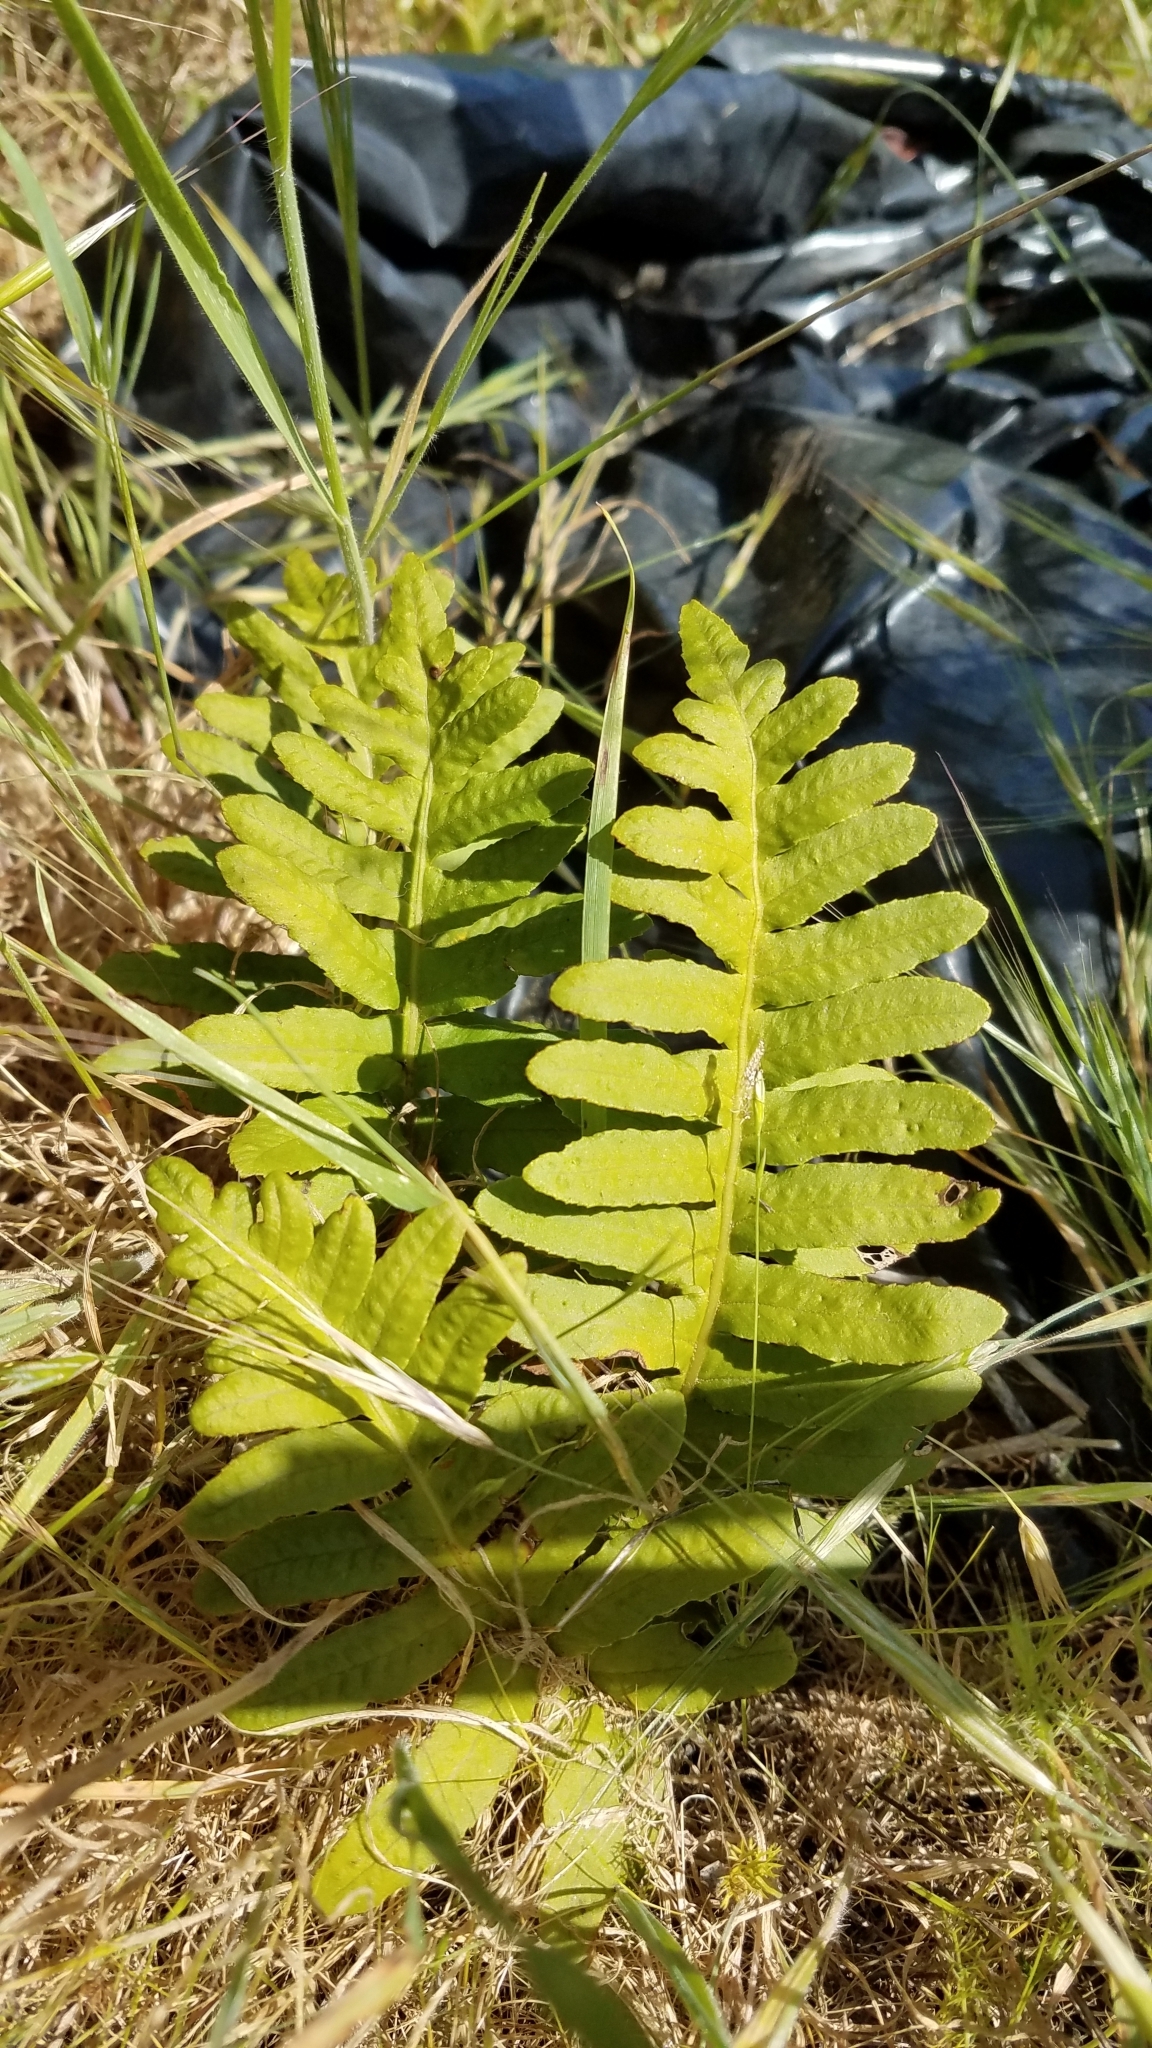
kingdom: Plantae
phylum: Tracheophyta
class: Polypodiopsida
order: Polypodiales
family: Polypodiaceae
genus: Polypodium
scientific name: Polypodium californicum
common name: California polypody
